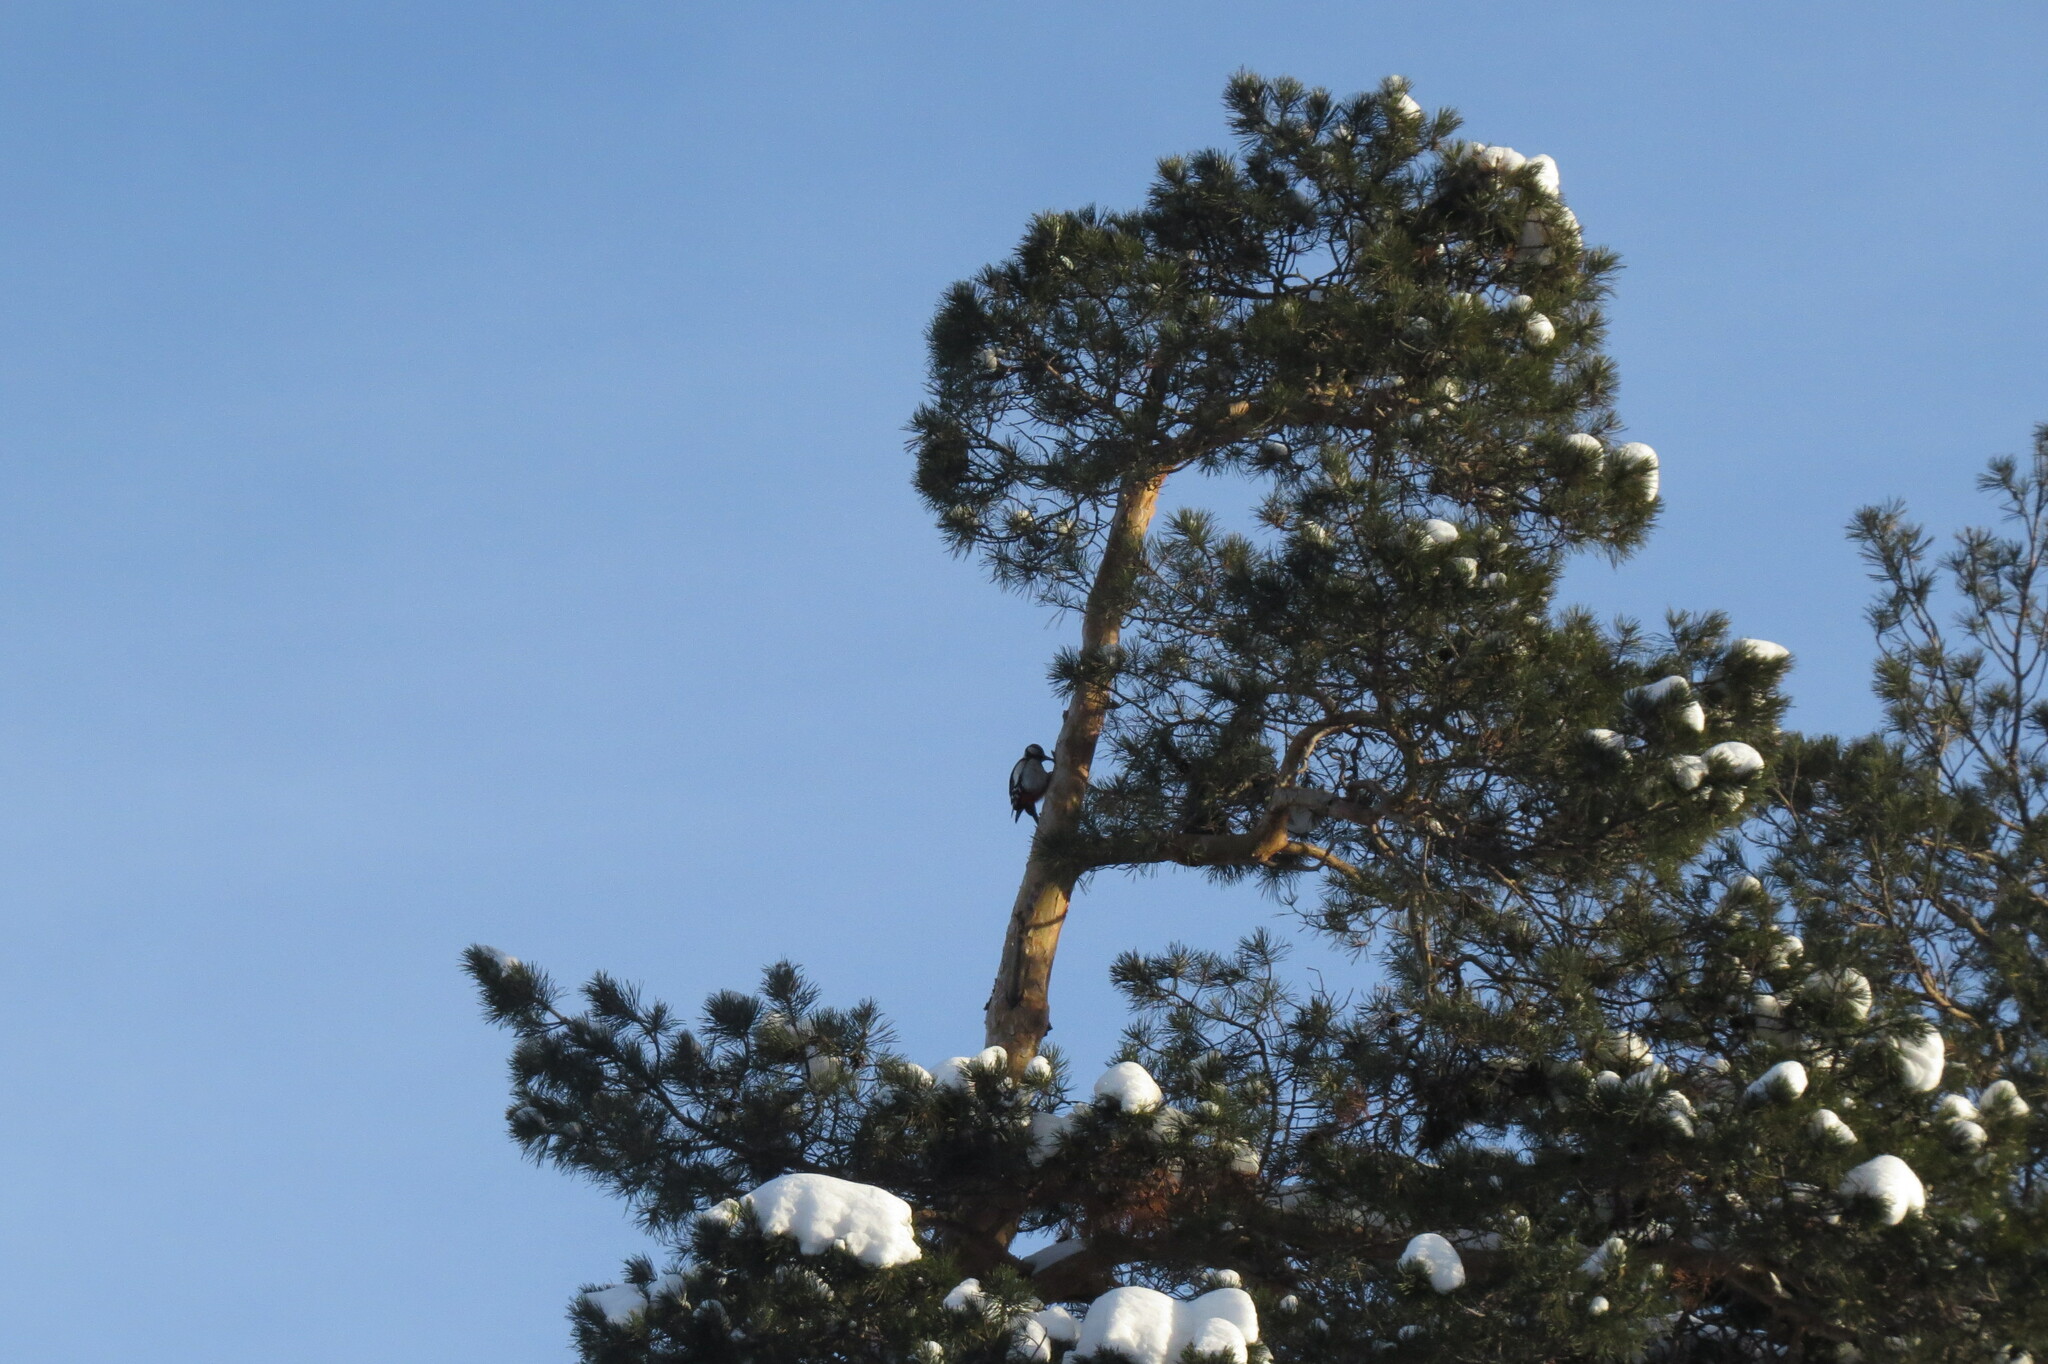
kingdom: Animalia
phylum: Chordata
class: Aves
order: Piciformes
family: Picidae
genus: Dendrocopos
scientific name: Dendrocopos major
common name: Great spotted woodpecker
